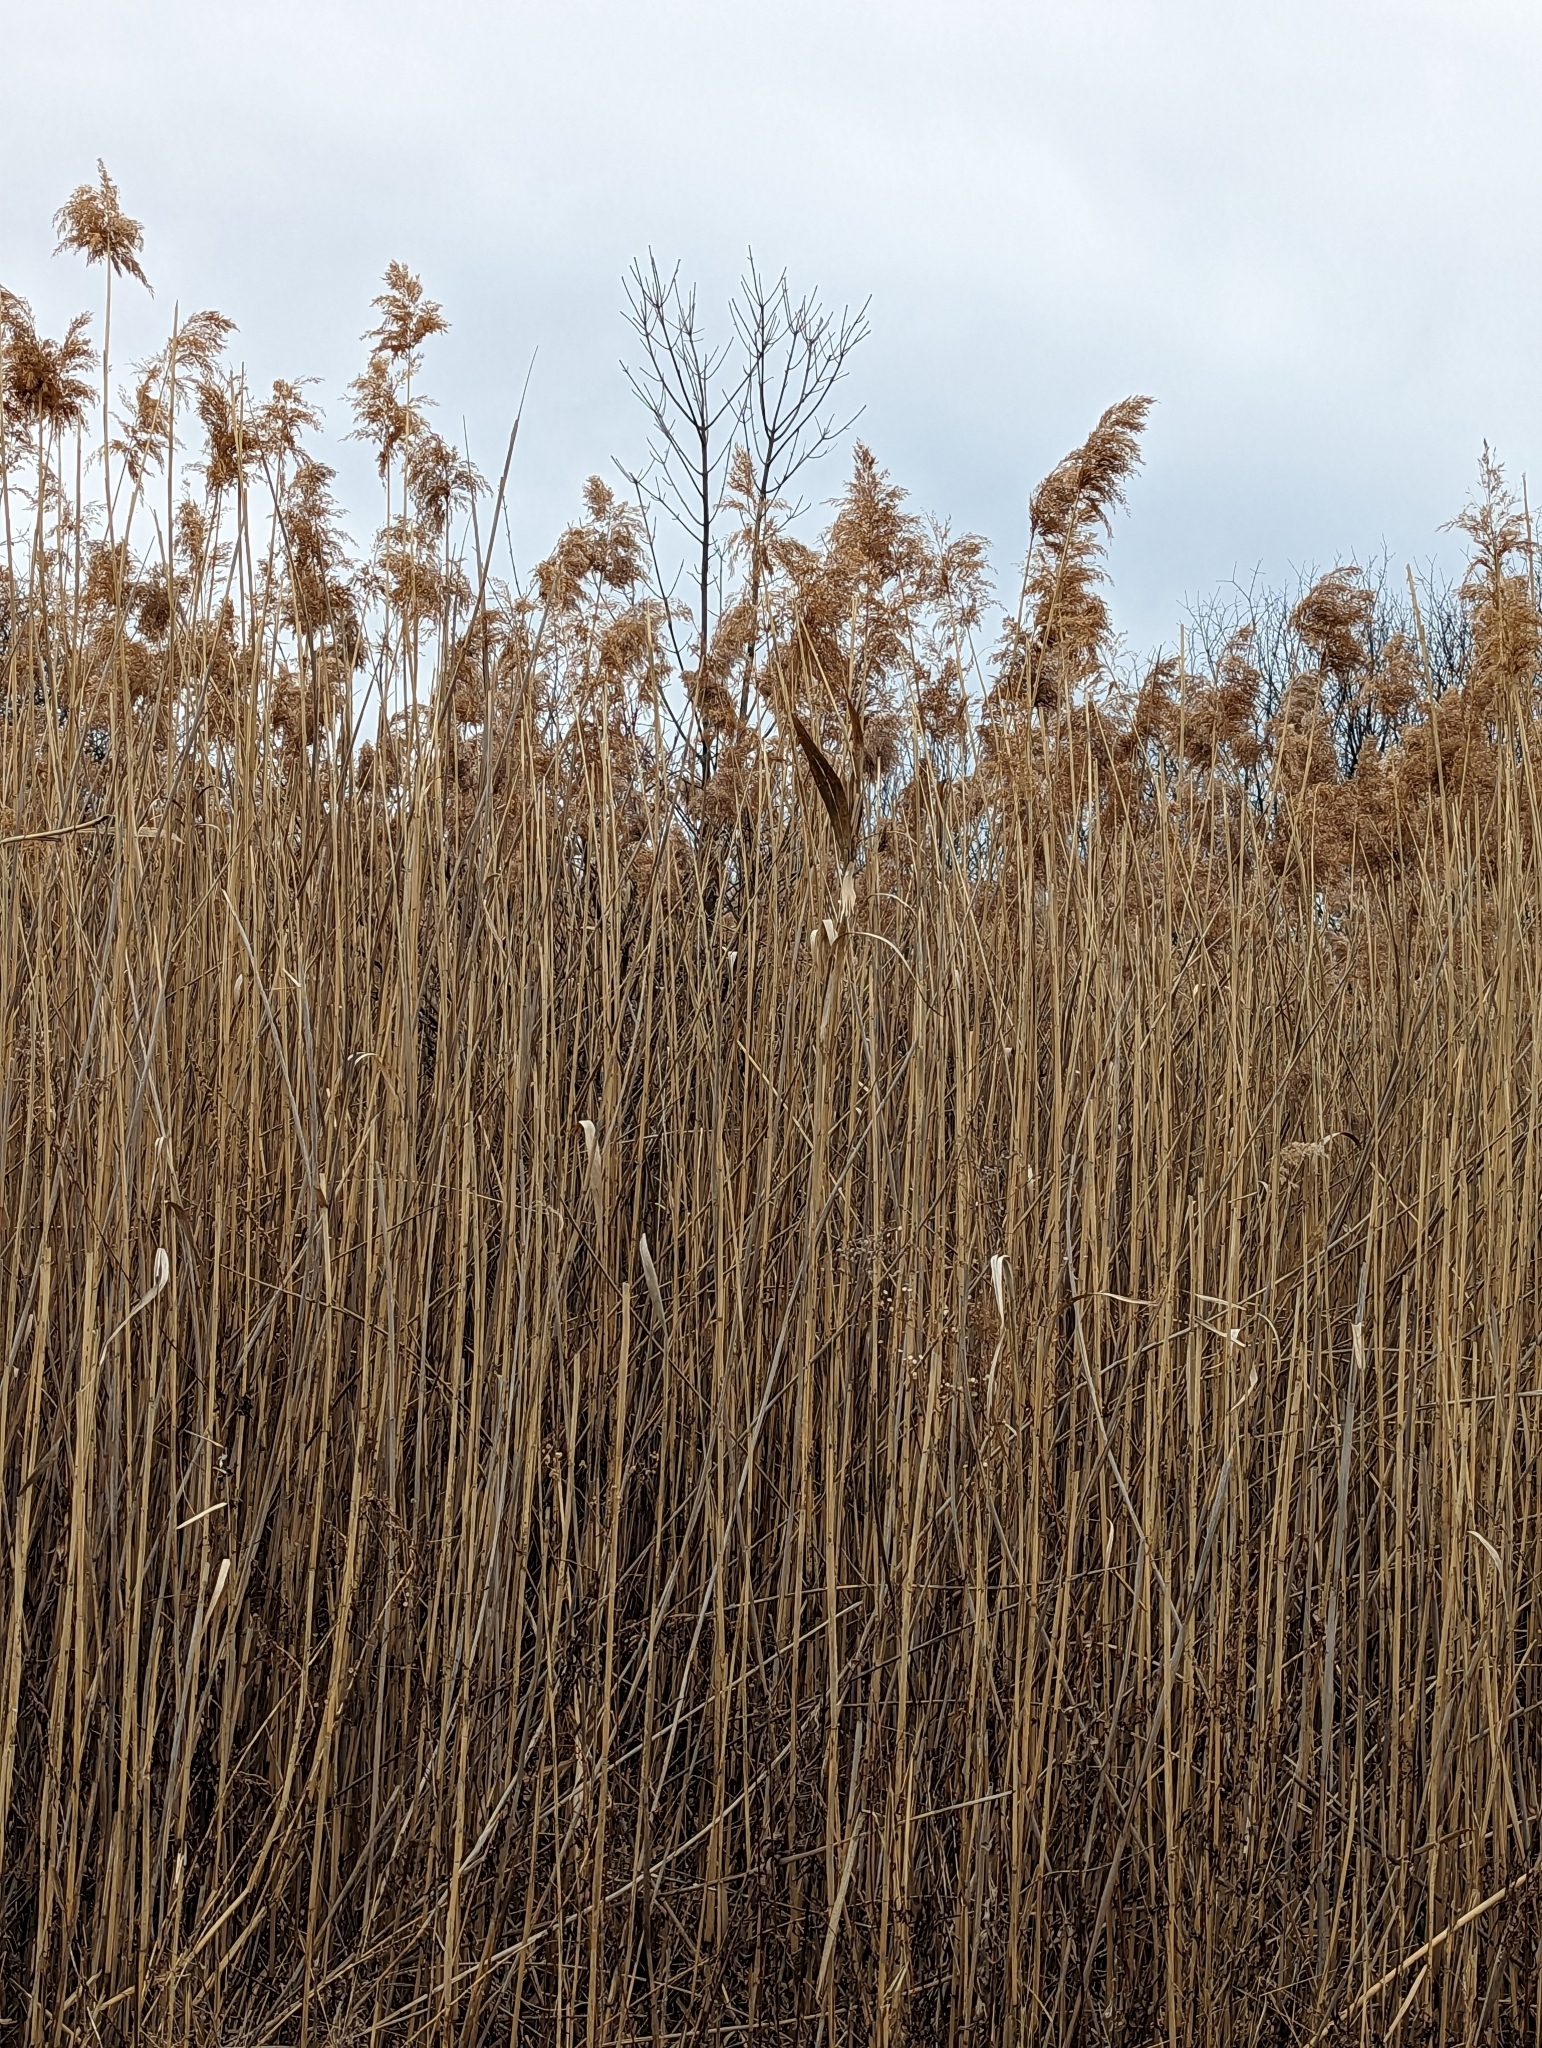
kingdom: Plantae
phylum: Tracheophyta
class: Liliopsida
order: Poales
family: Poaceae
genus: Phragmites
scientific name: Phragmites australis
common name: Common reed
